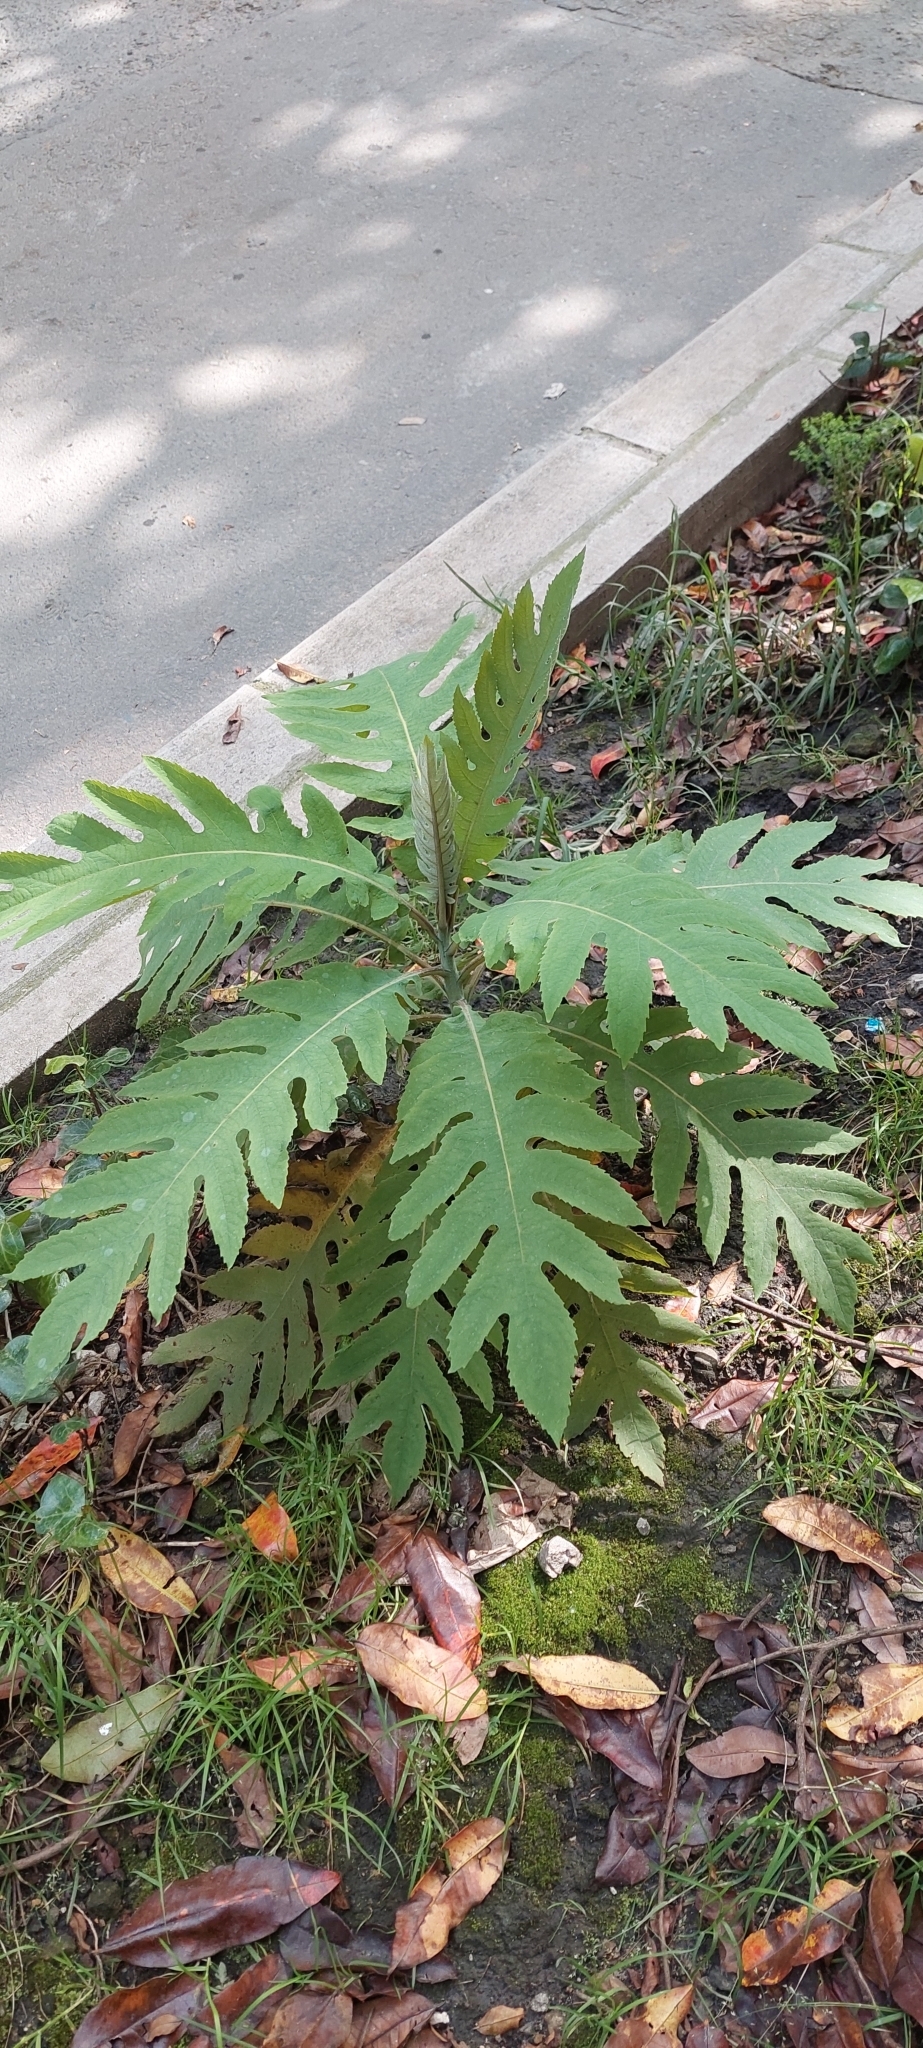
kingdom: Plantae
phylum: Tracheophyta
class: Magnoliopsida
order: Ranunculales
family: Papaveraceae
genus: Bocconia
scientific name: Bocconia frutescens
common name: Tree poppy
